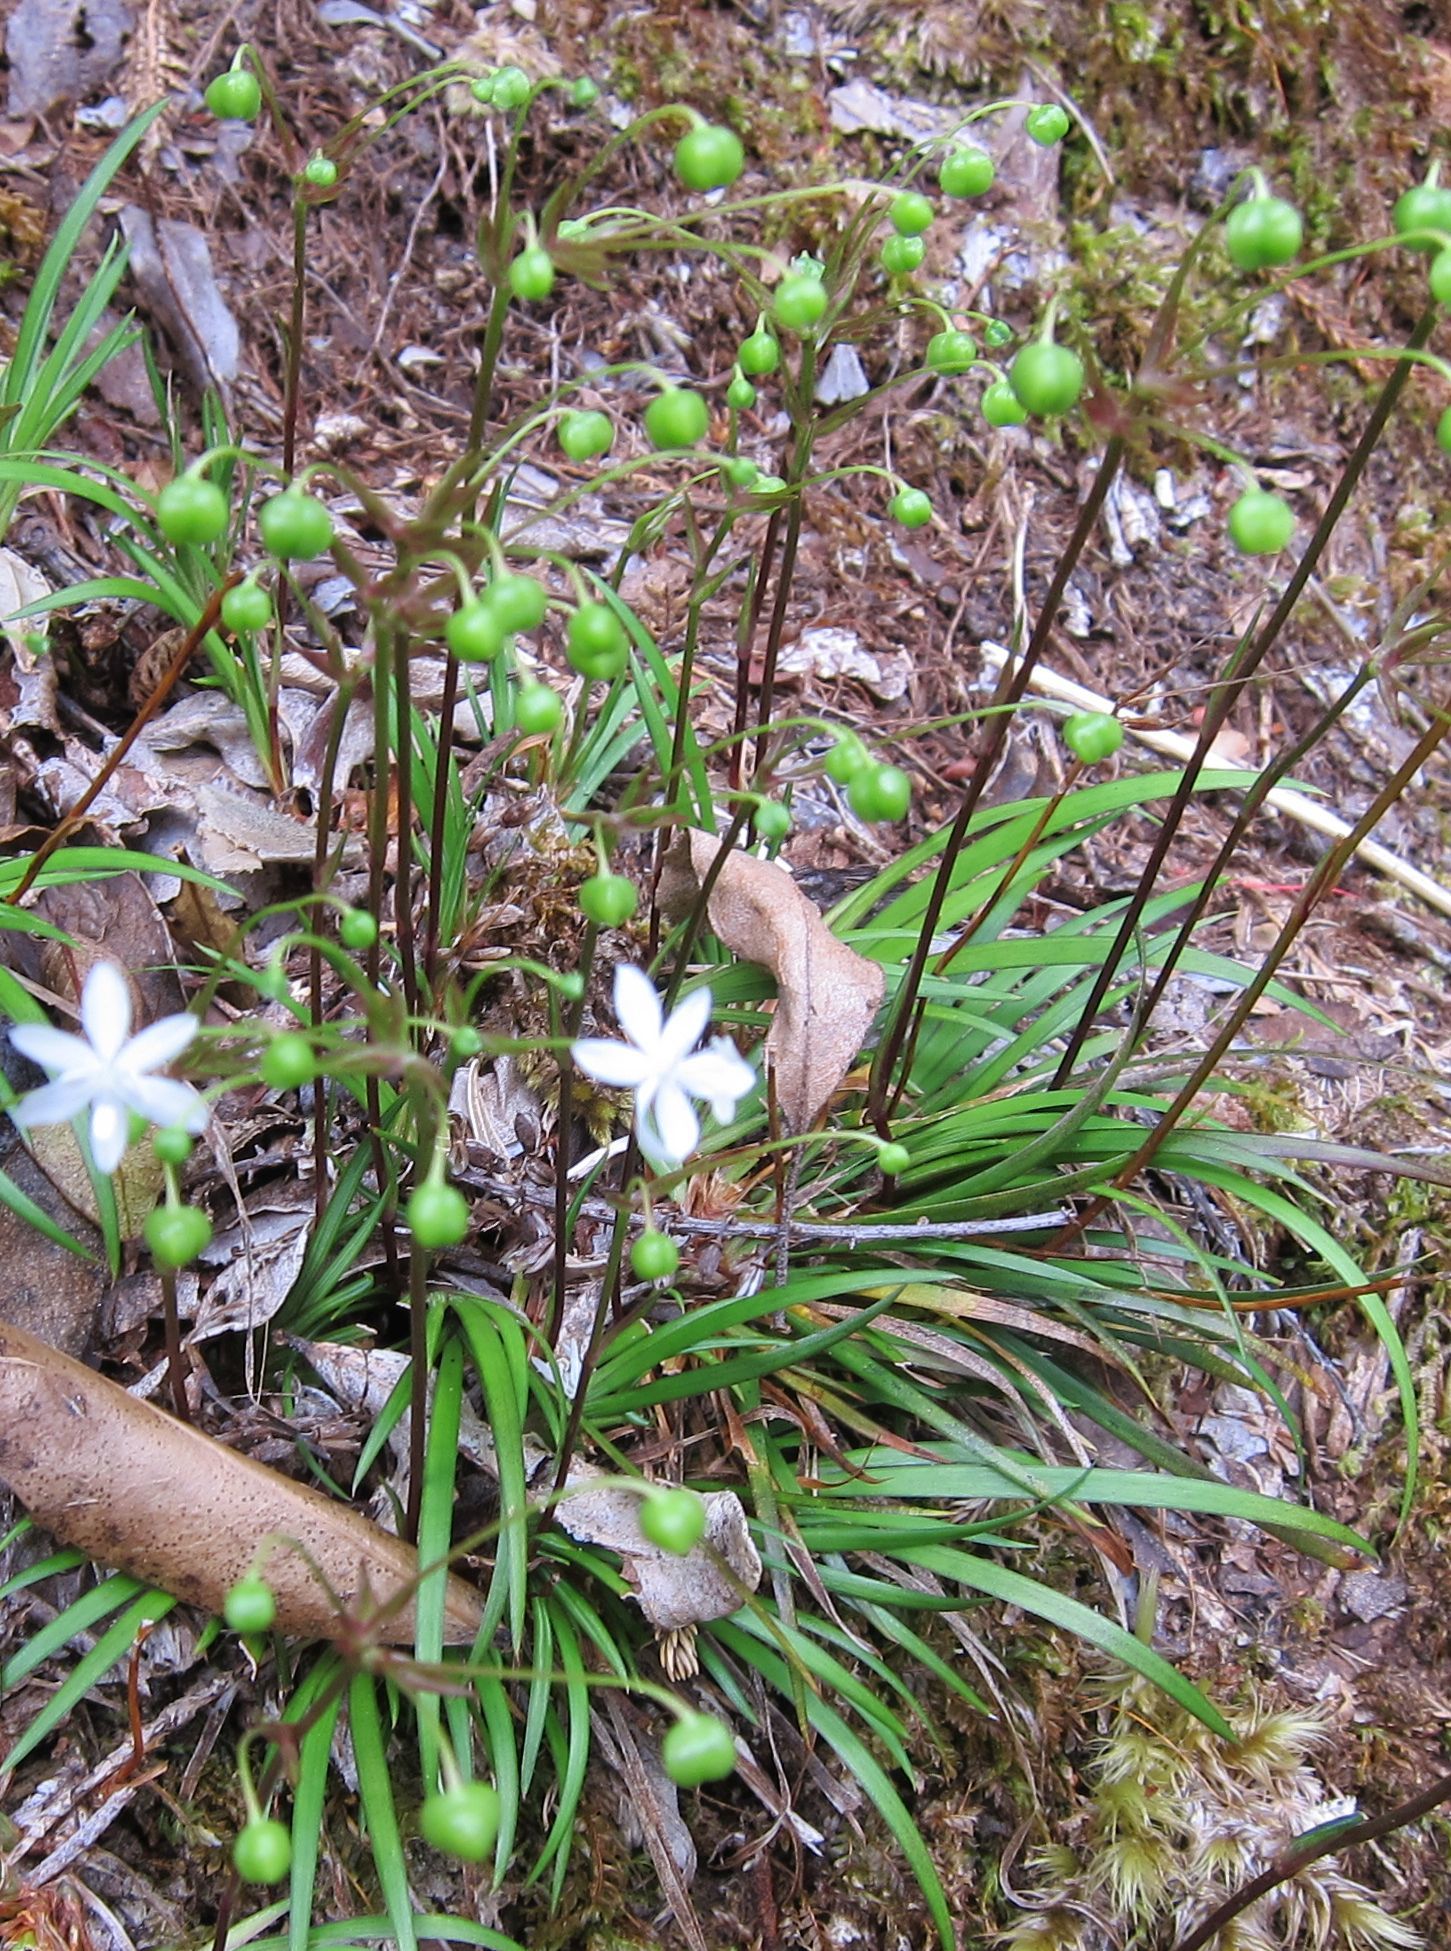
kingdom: Plantae
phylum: Tracheophyta
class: Liliopsida
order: Asparagales
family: Iridaceae
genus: Libertia
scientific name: Libertia micrantha
